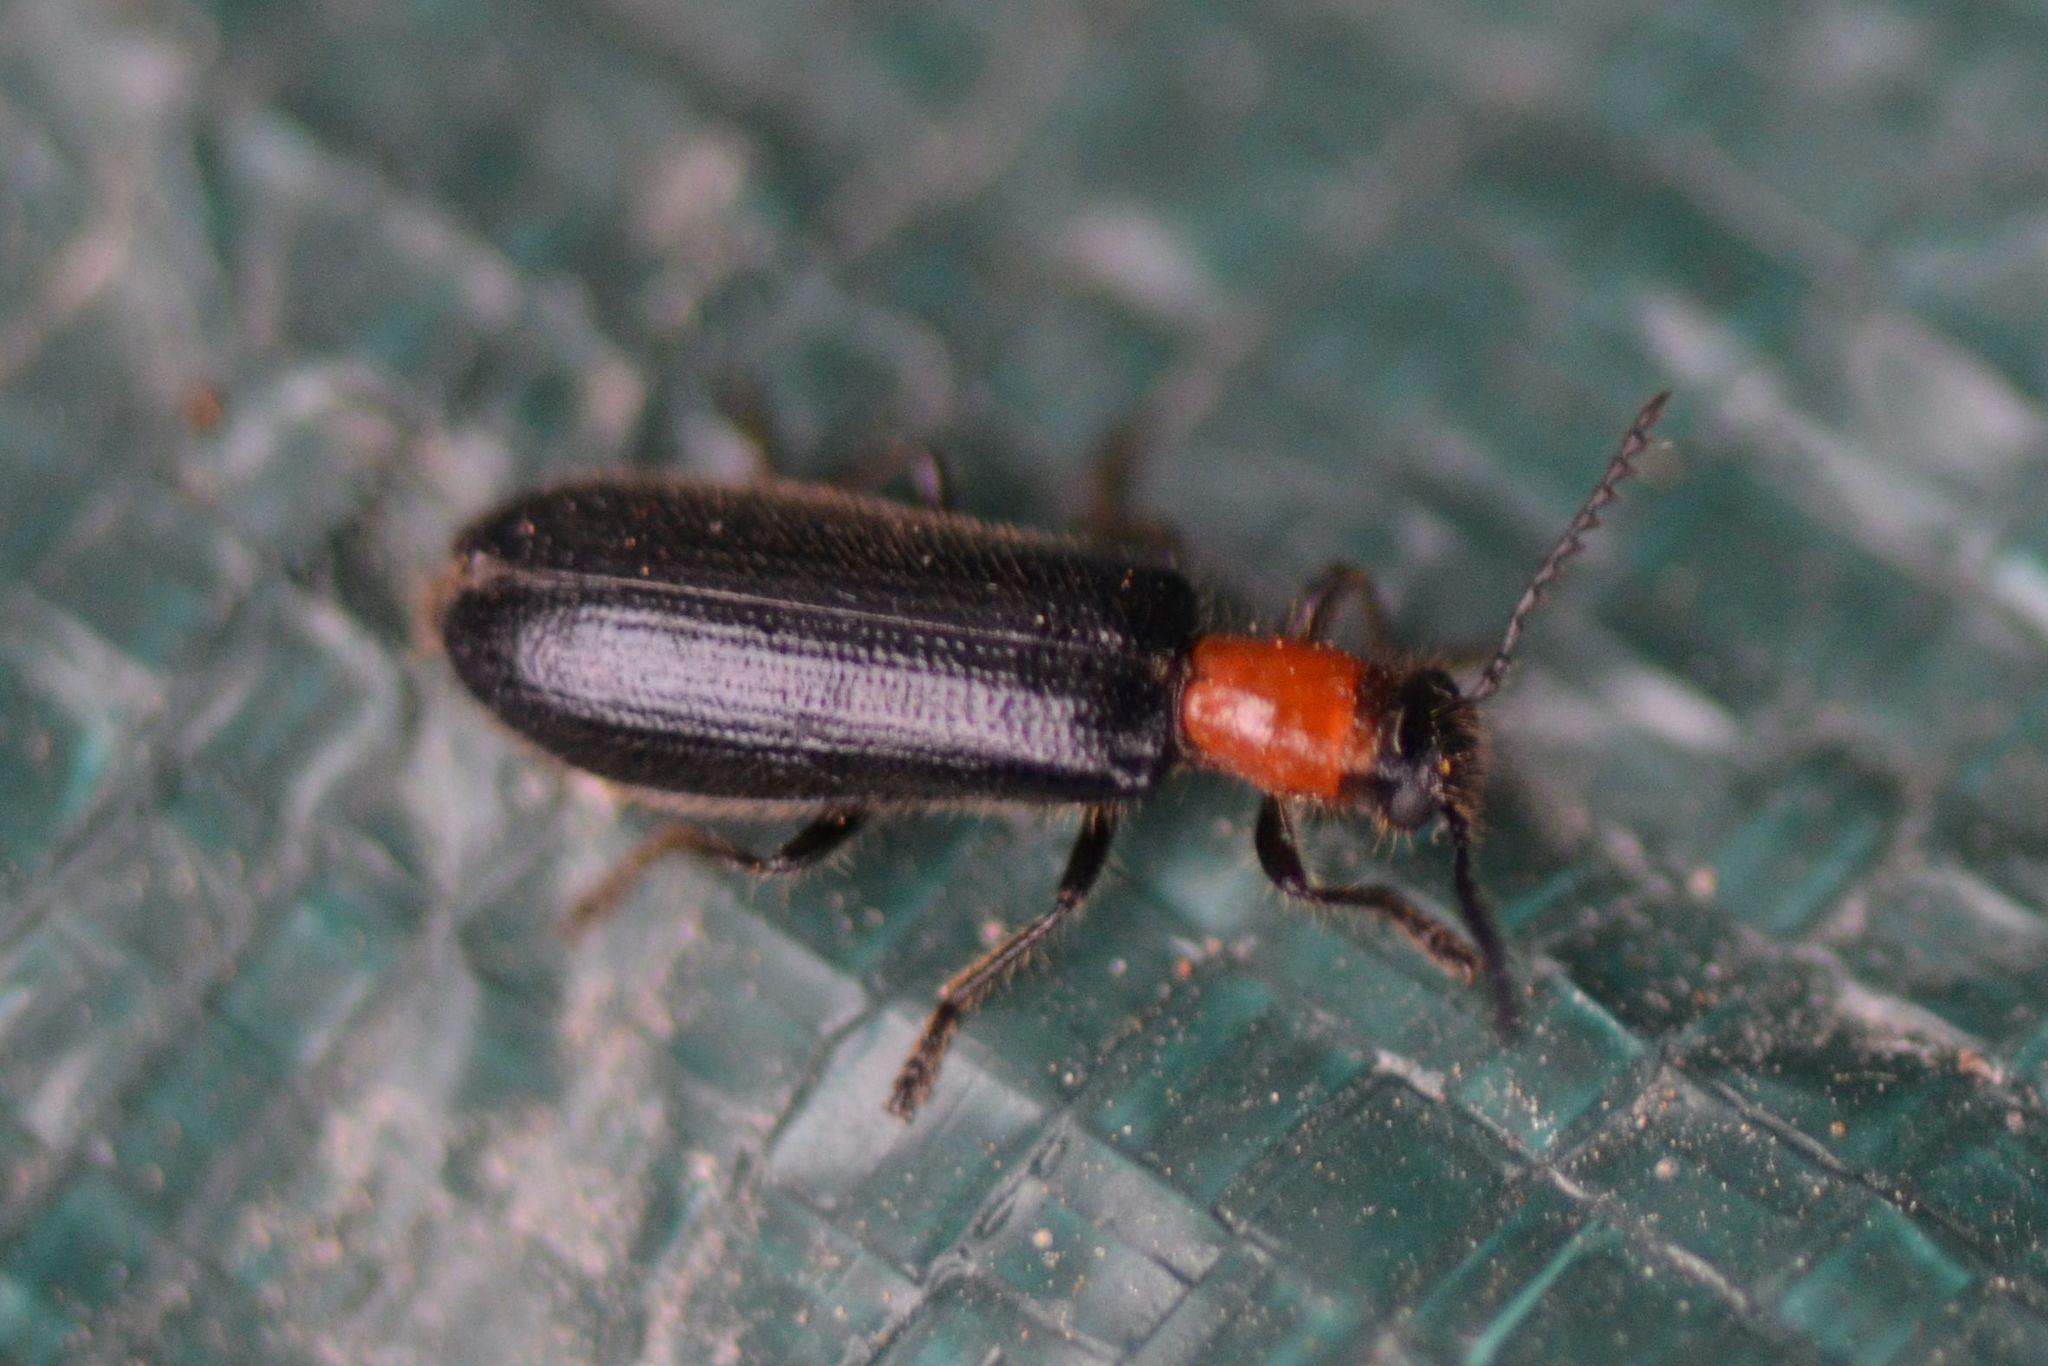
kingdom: Animalia
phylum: Arthropoda
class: Insecta
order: Coleoptera
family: Cleridae
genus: Tillus
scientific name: Tillus elongatus
